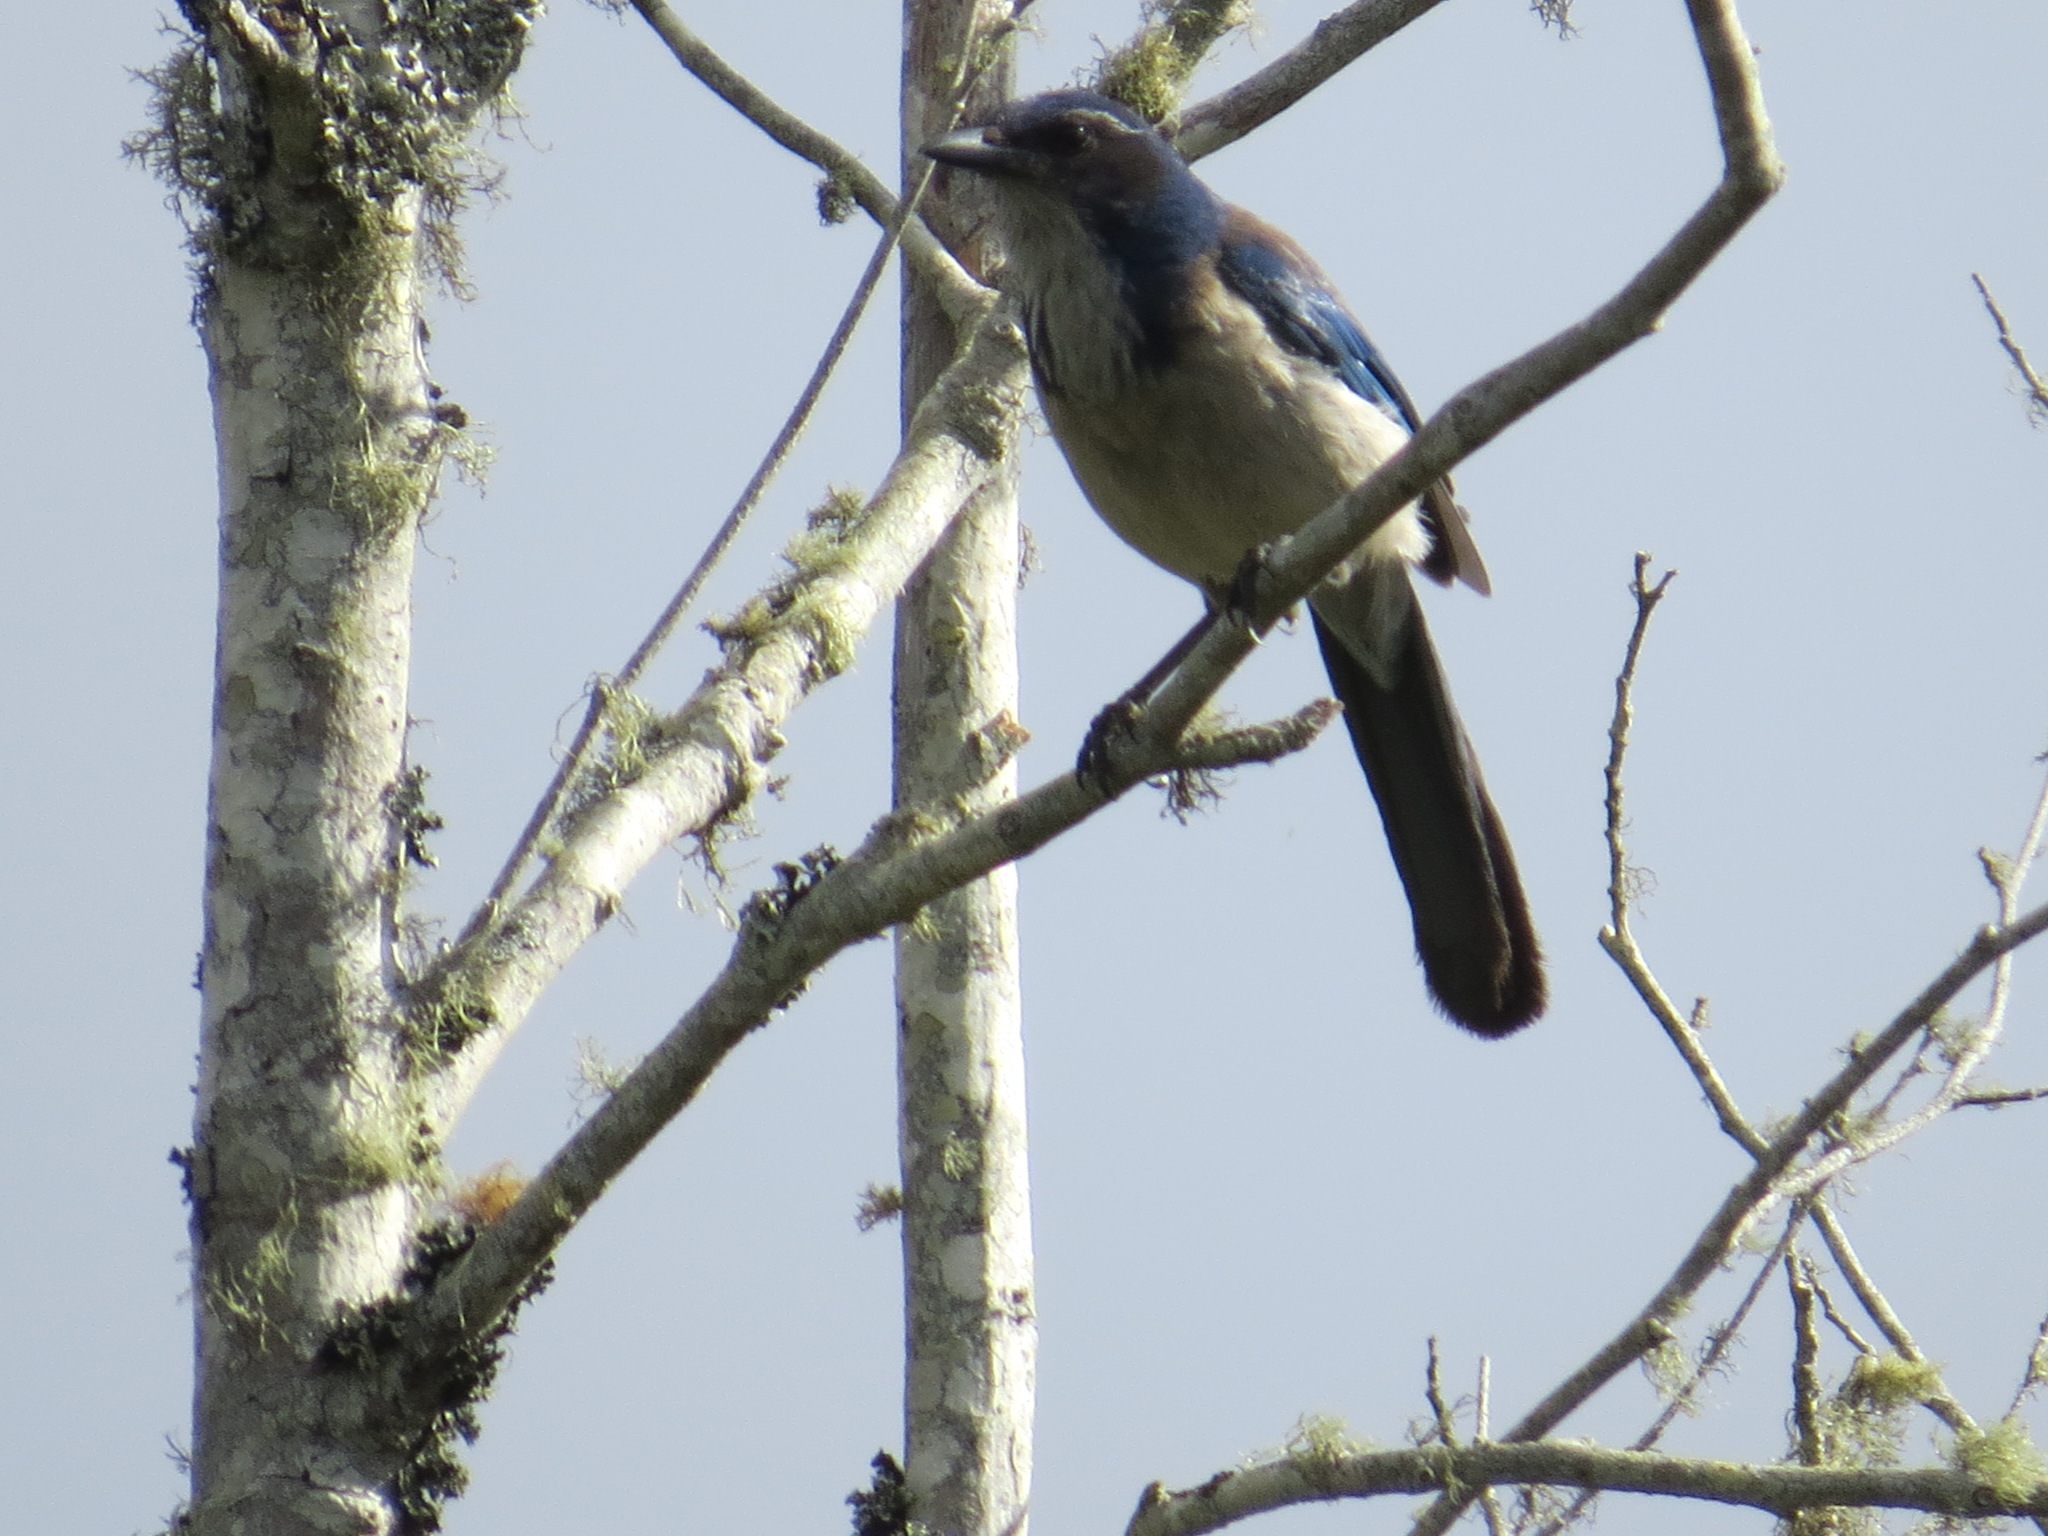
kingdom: Animalia
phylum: Chordata
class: Aves
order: Passeriformes
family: Corvidae
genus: Aphelocoma
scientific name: Aphelocoma californica
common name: California scrub-jay
